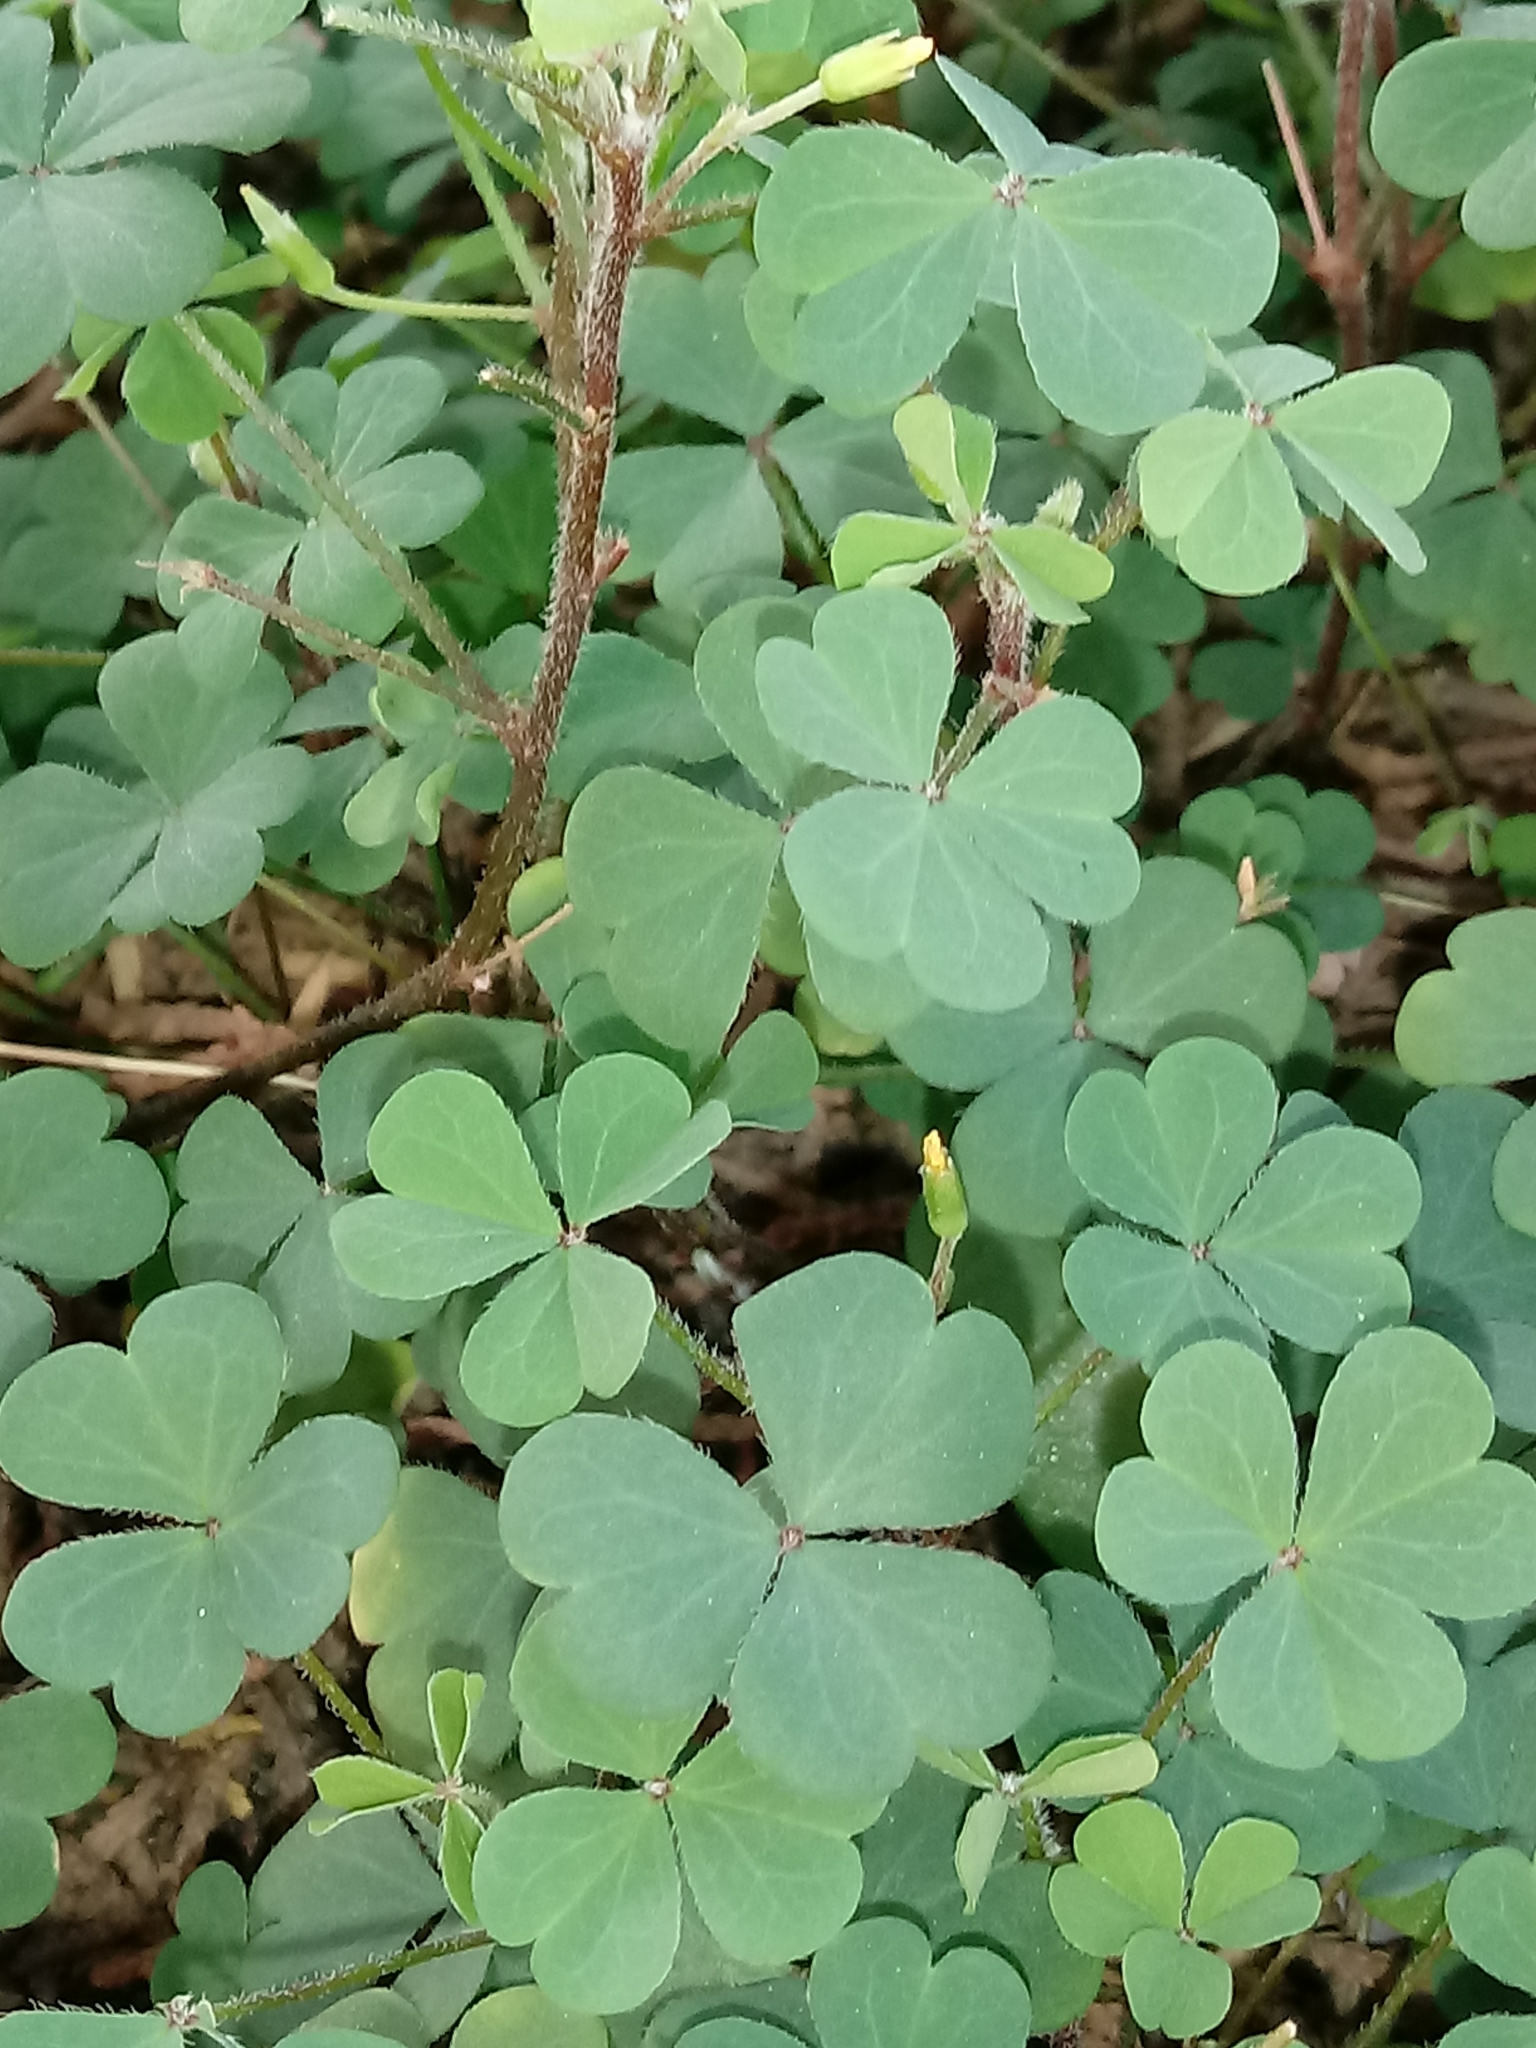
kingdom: Plantae
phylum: Tracheophyta
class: Magnoliopsida
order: Oxalidales
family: Oxalidaceae
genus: Oxalis
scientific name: Oxalis corniculata
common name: Procumbent yellow-sorrel
